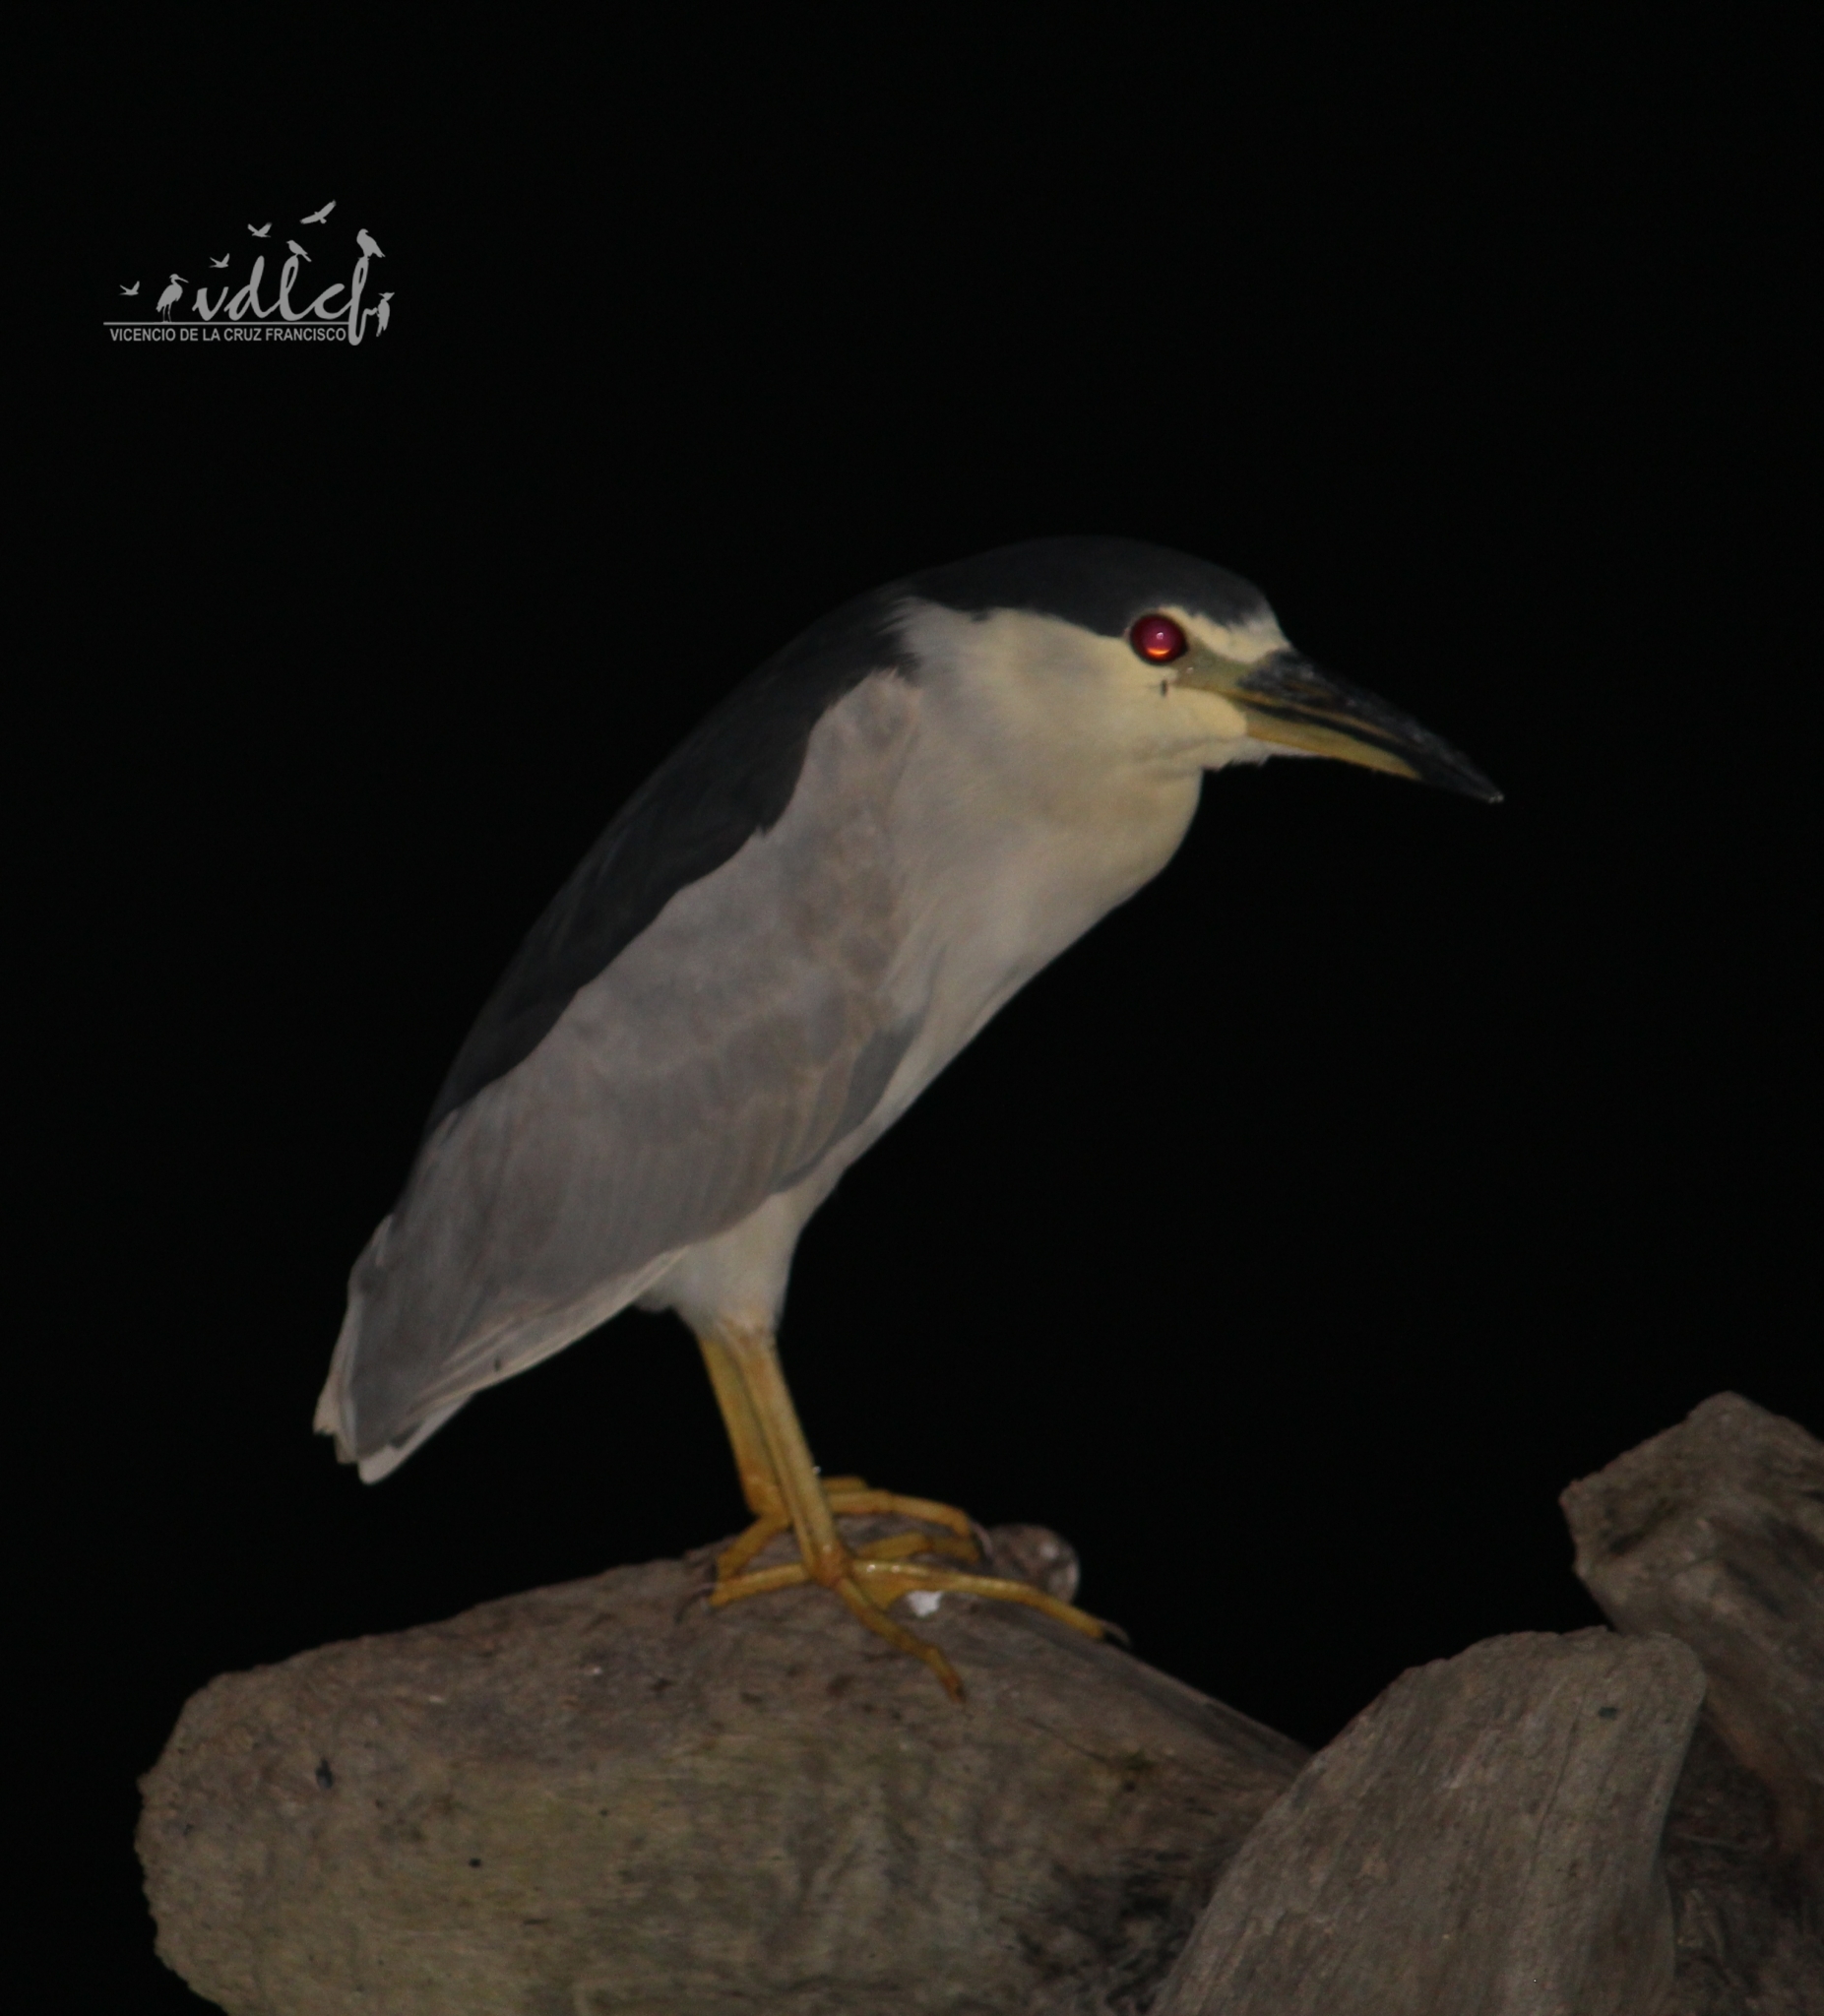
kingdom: Animalia
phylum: Chordata
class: Aves
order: Pelecaniformes
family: Ardeidae
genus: Nycticorax
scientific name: Nycticorax nycticorax
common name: Black-crowned night heron
